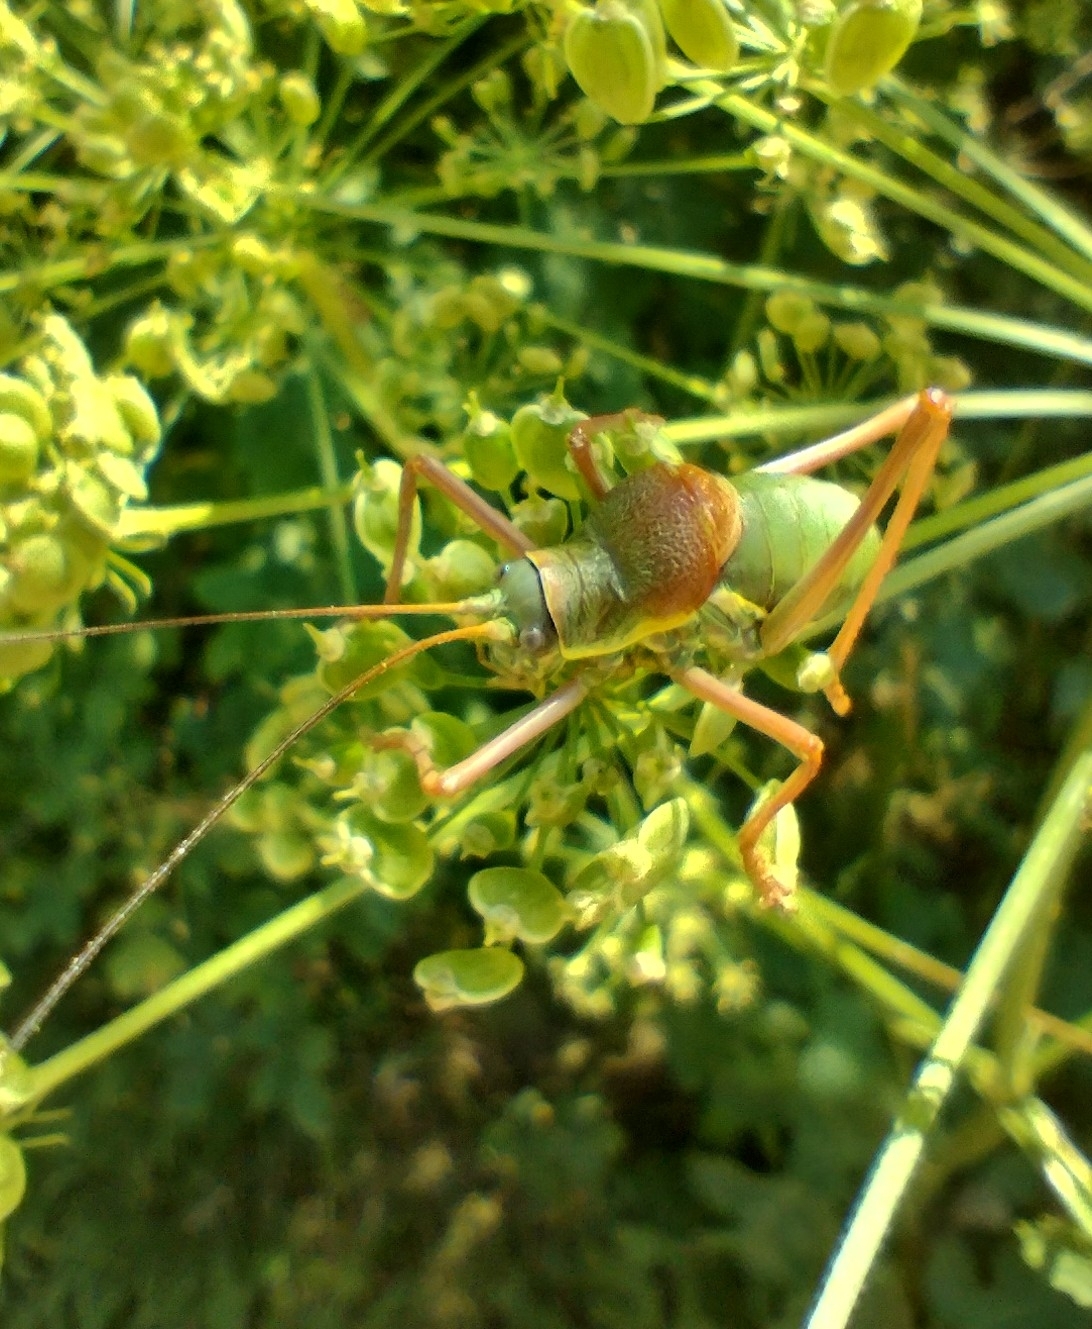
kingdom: Animalia
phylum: Arthropoda
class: Insecta
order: Orthoptera
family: Tettigoniidae
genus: Ephippiger
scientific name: Ephippiger ephippiger
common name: Eastern saddle bush-cricket
